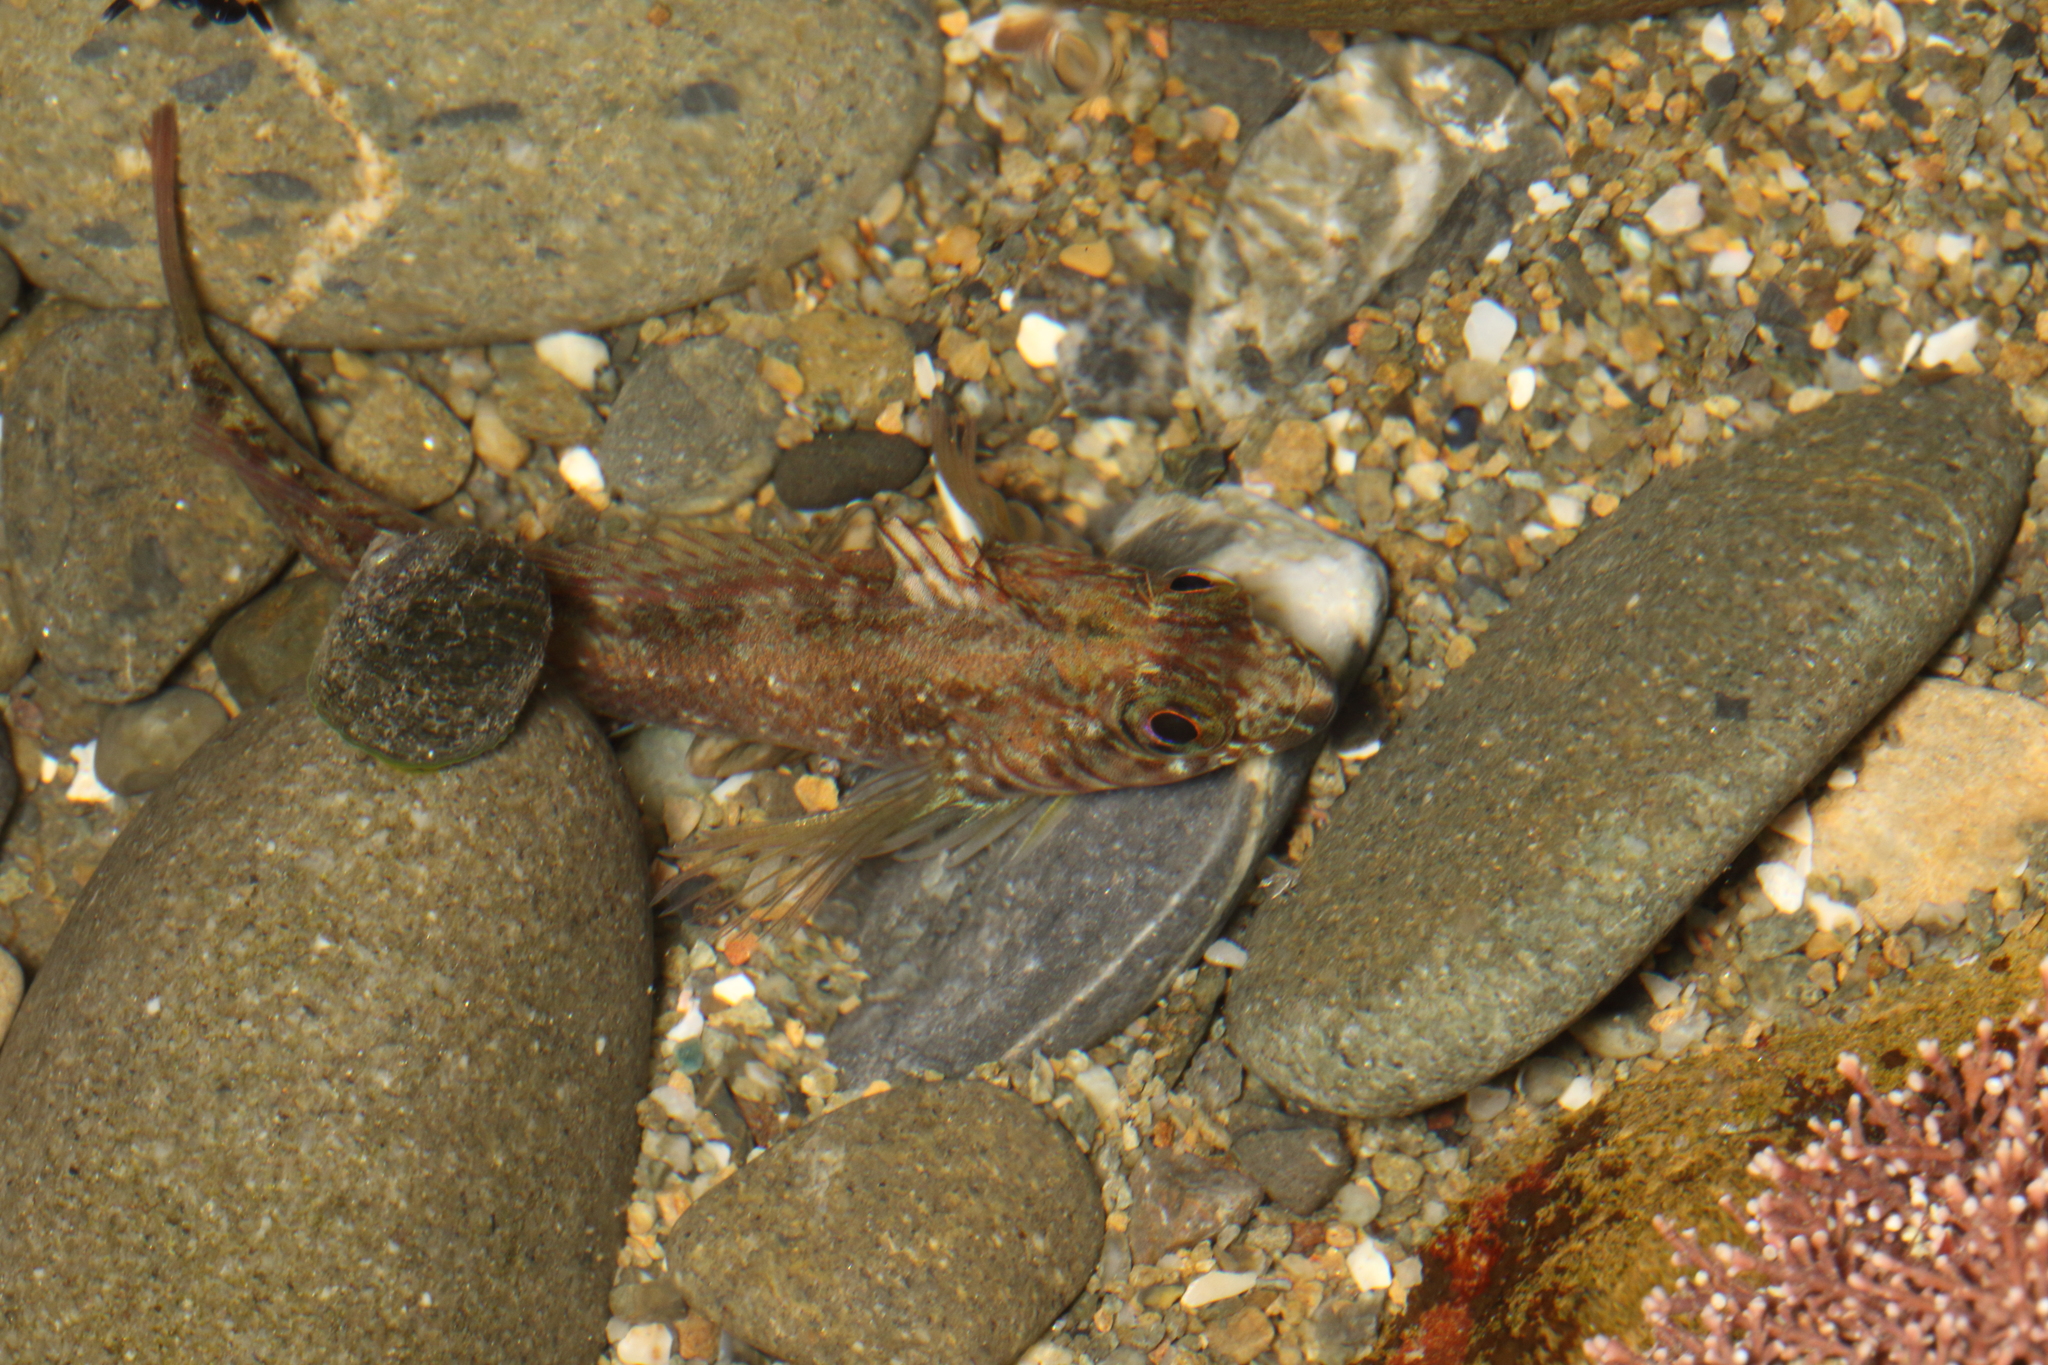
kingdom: Animalia
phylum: Chordata
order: Perciformes
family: Tripterygiidae
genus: Forsterygion
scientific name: Forsterygion lapillum
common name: Common triplefin
